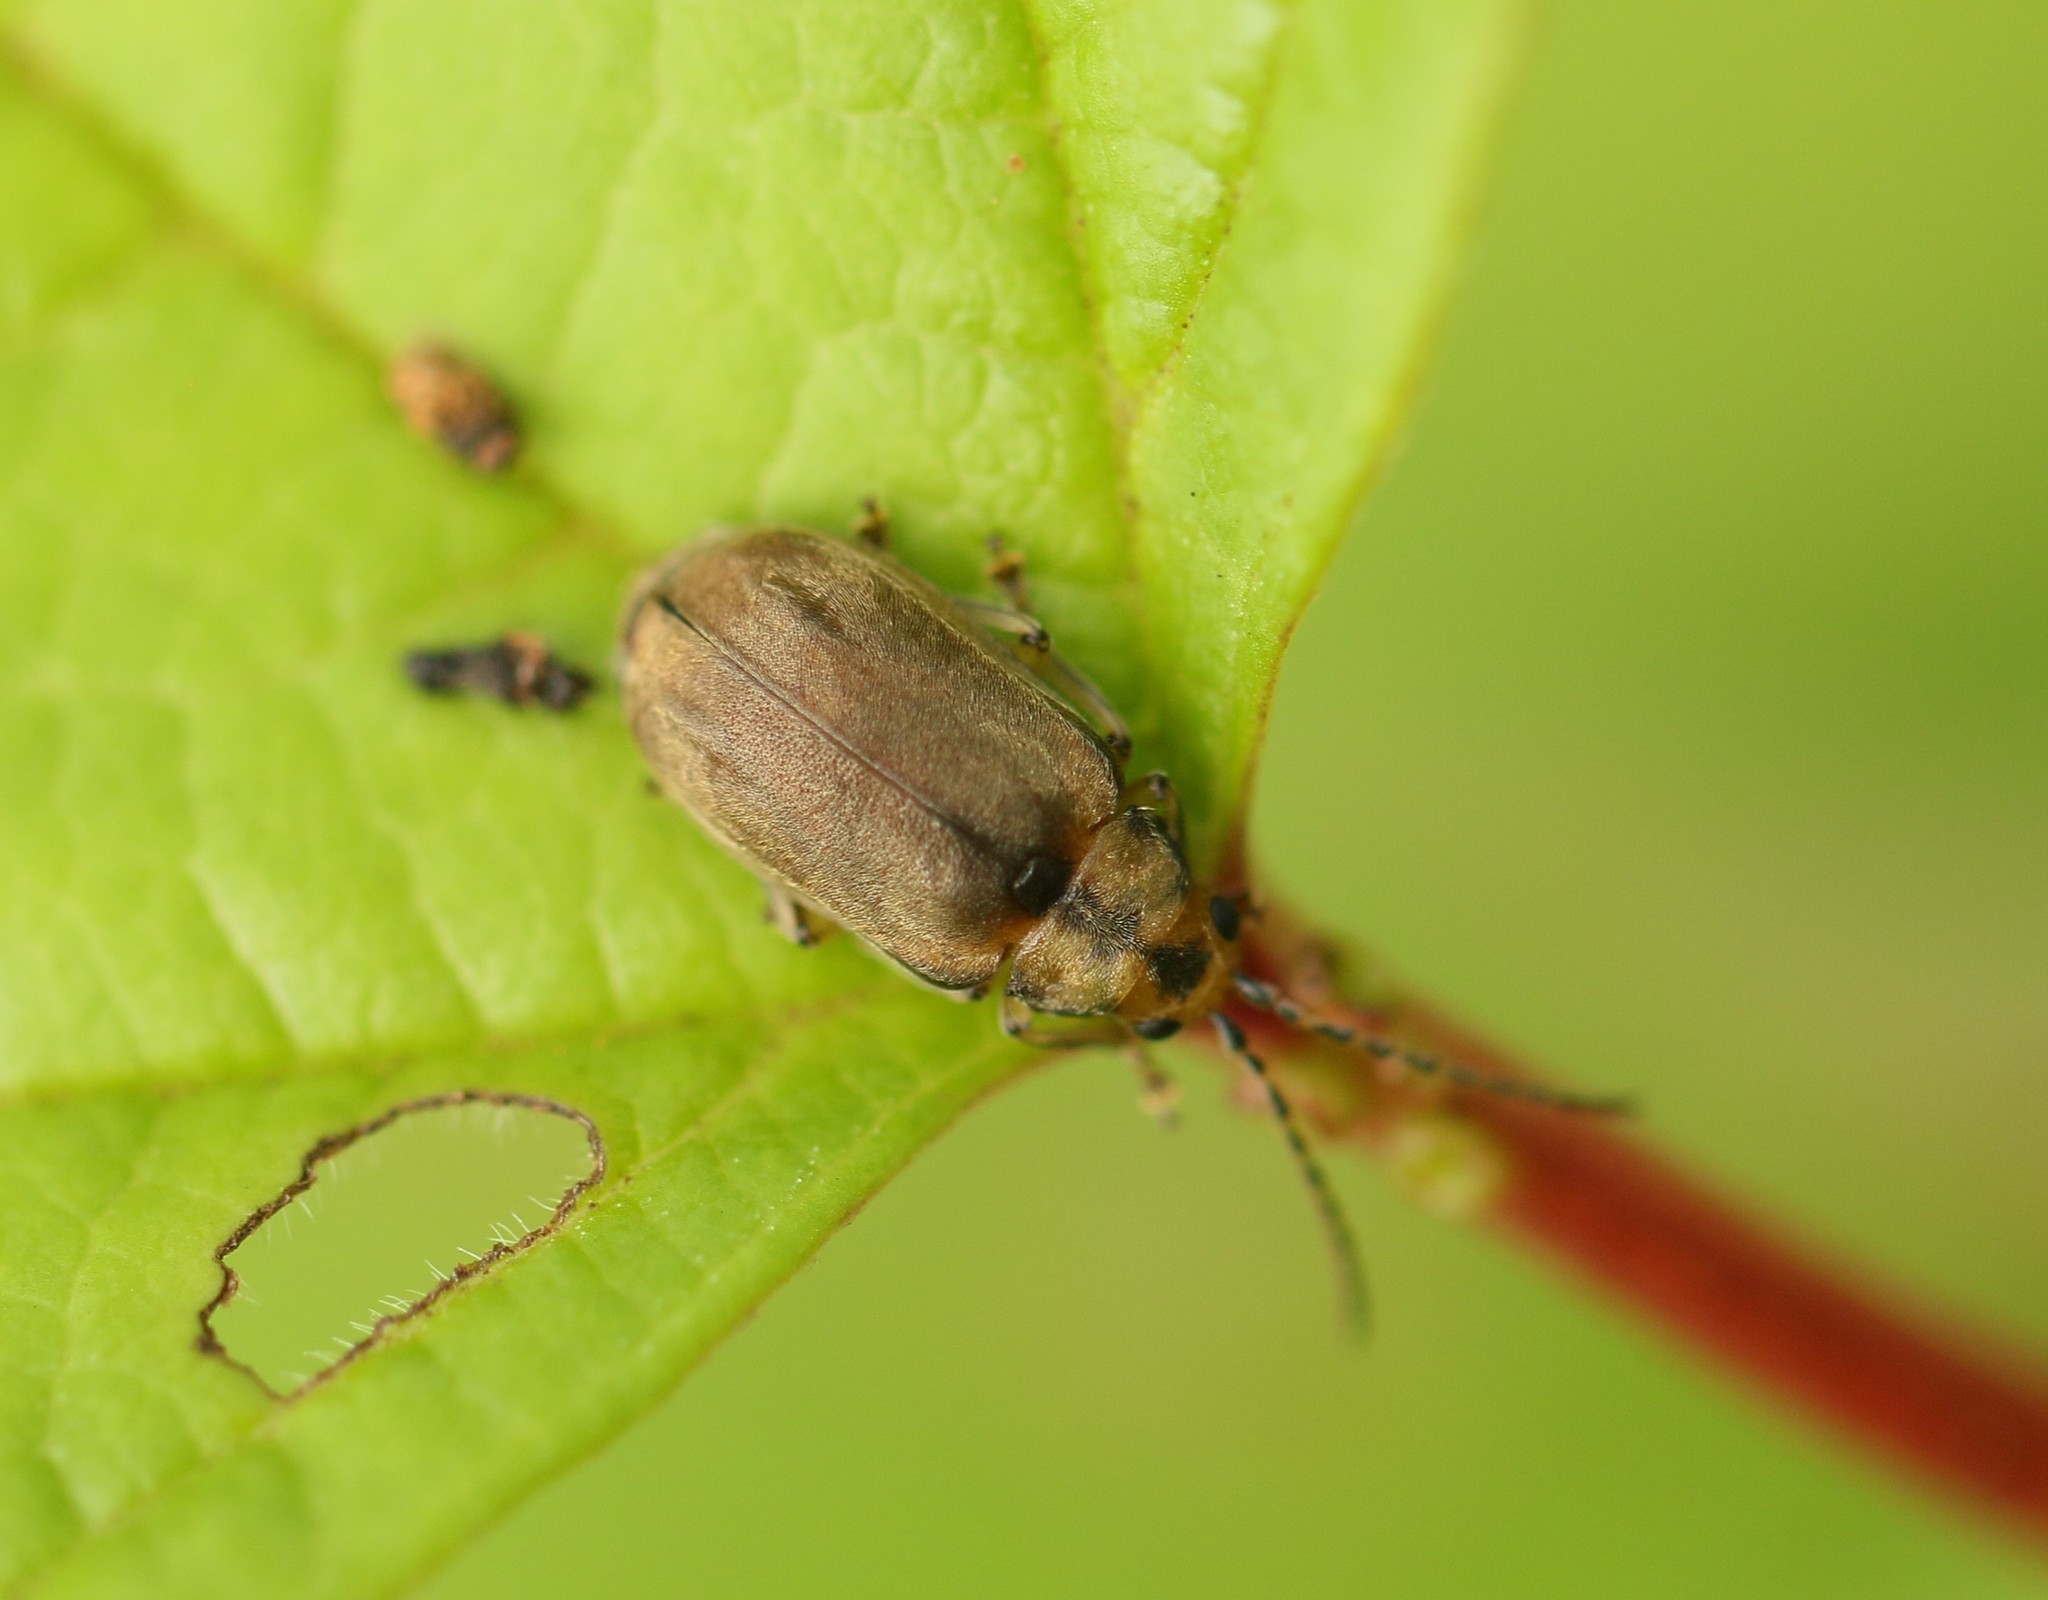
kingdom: Animalia
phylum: Arthropoda
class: Insecta
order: Coleoptera
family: Chrysomelidae
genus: Pyrrhalta
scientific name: Pyrrhalta viburni
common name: Guelder-rose leaf beetle
